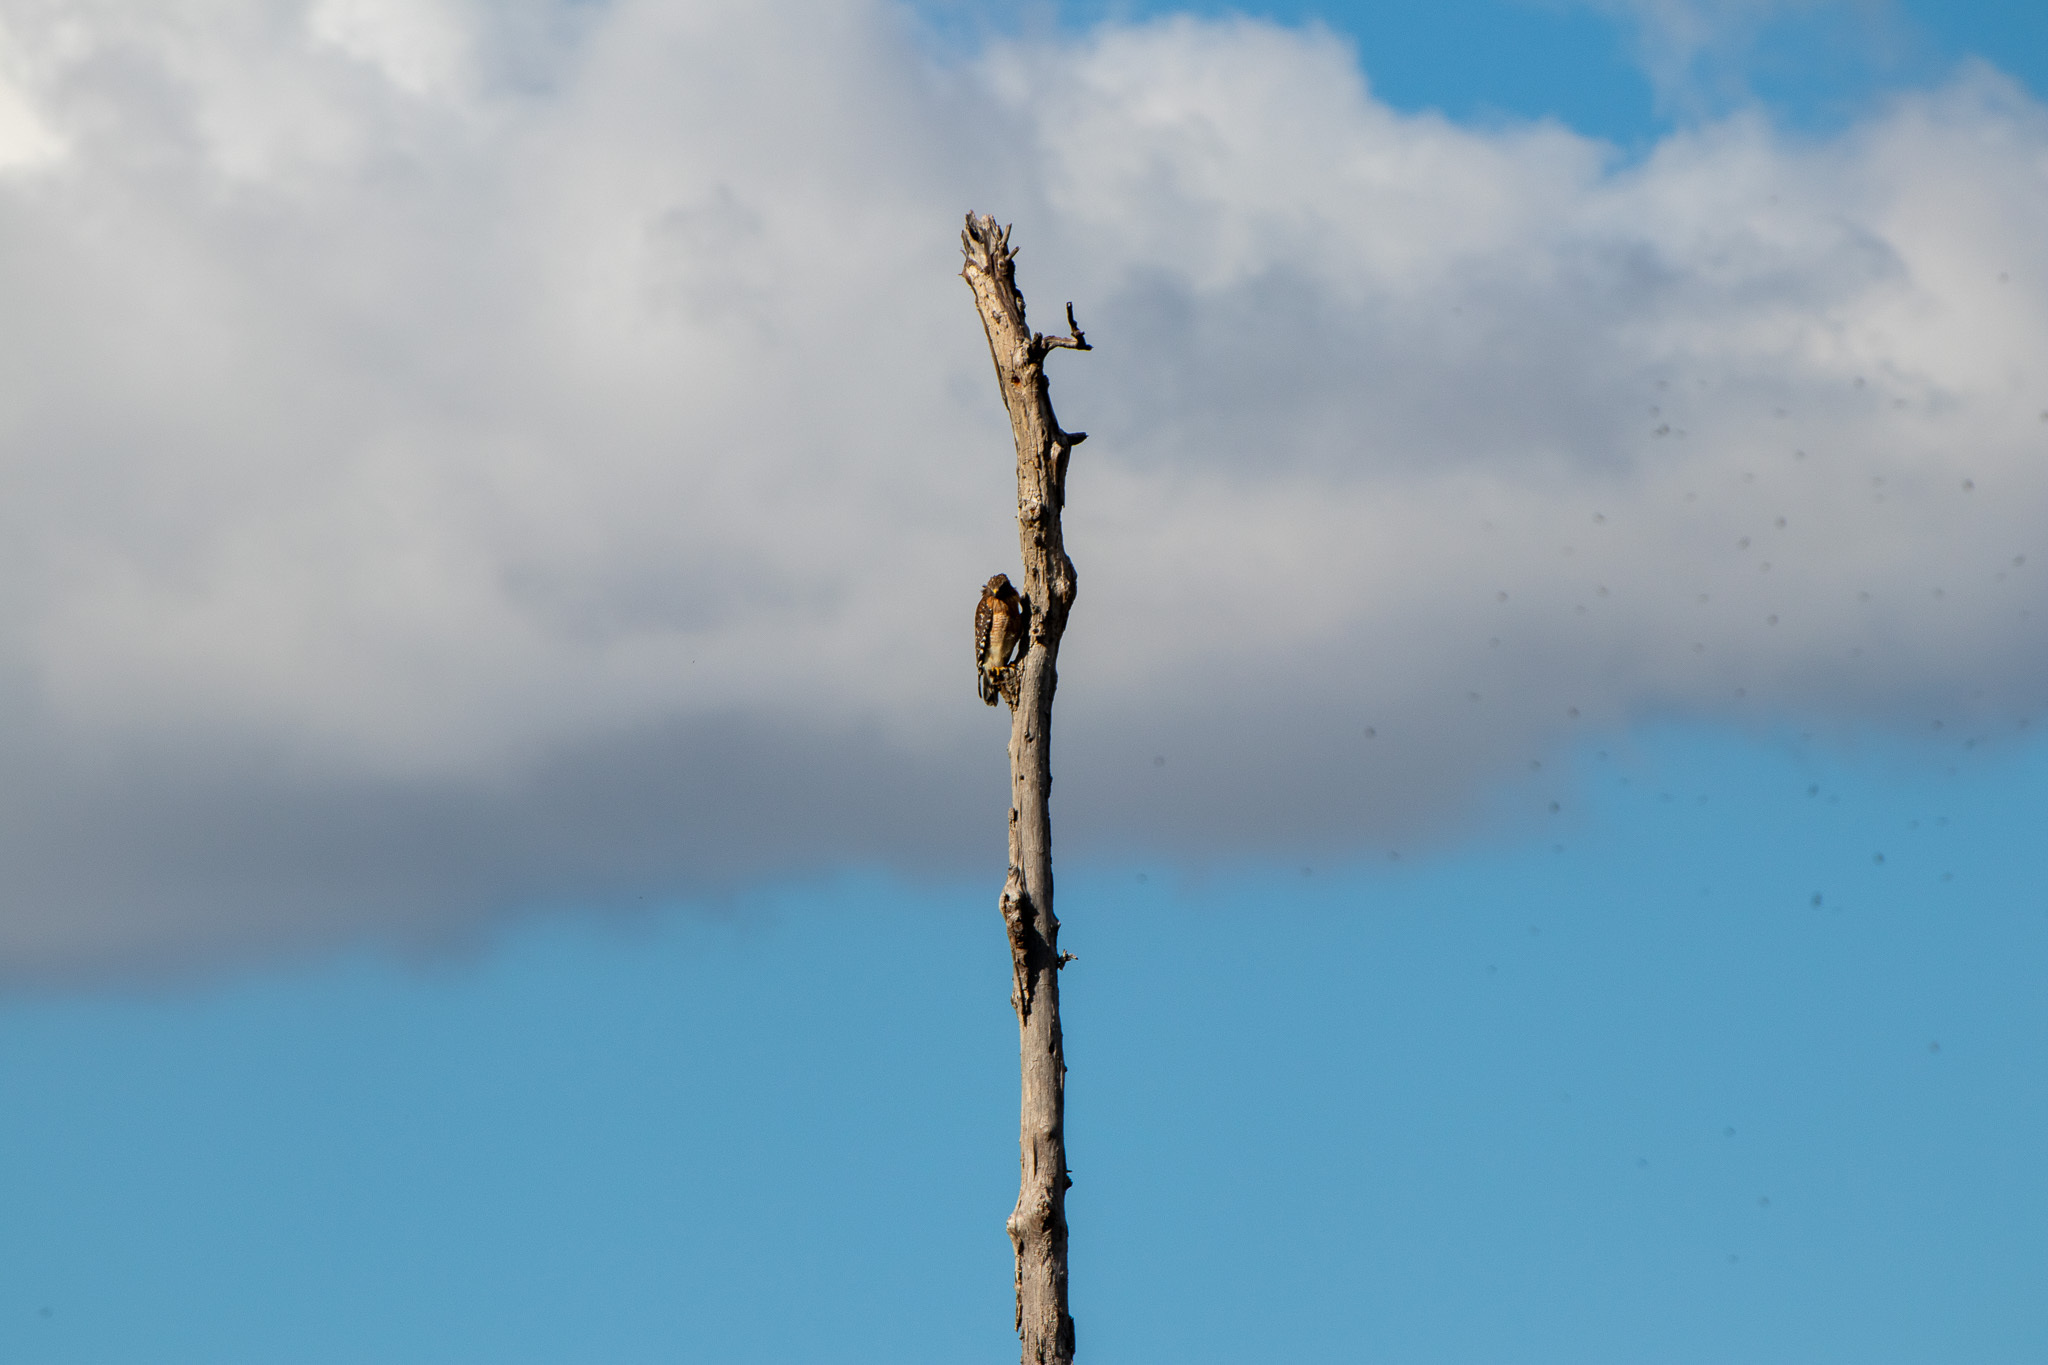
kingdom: Animalia
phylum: Chordata
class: Aves
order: Accipitriformes
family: Accipitridae
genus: Buteo
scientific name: Buteo lineatus
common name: Red-shouldered hawk
